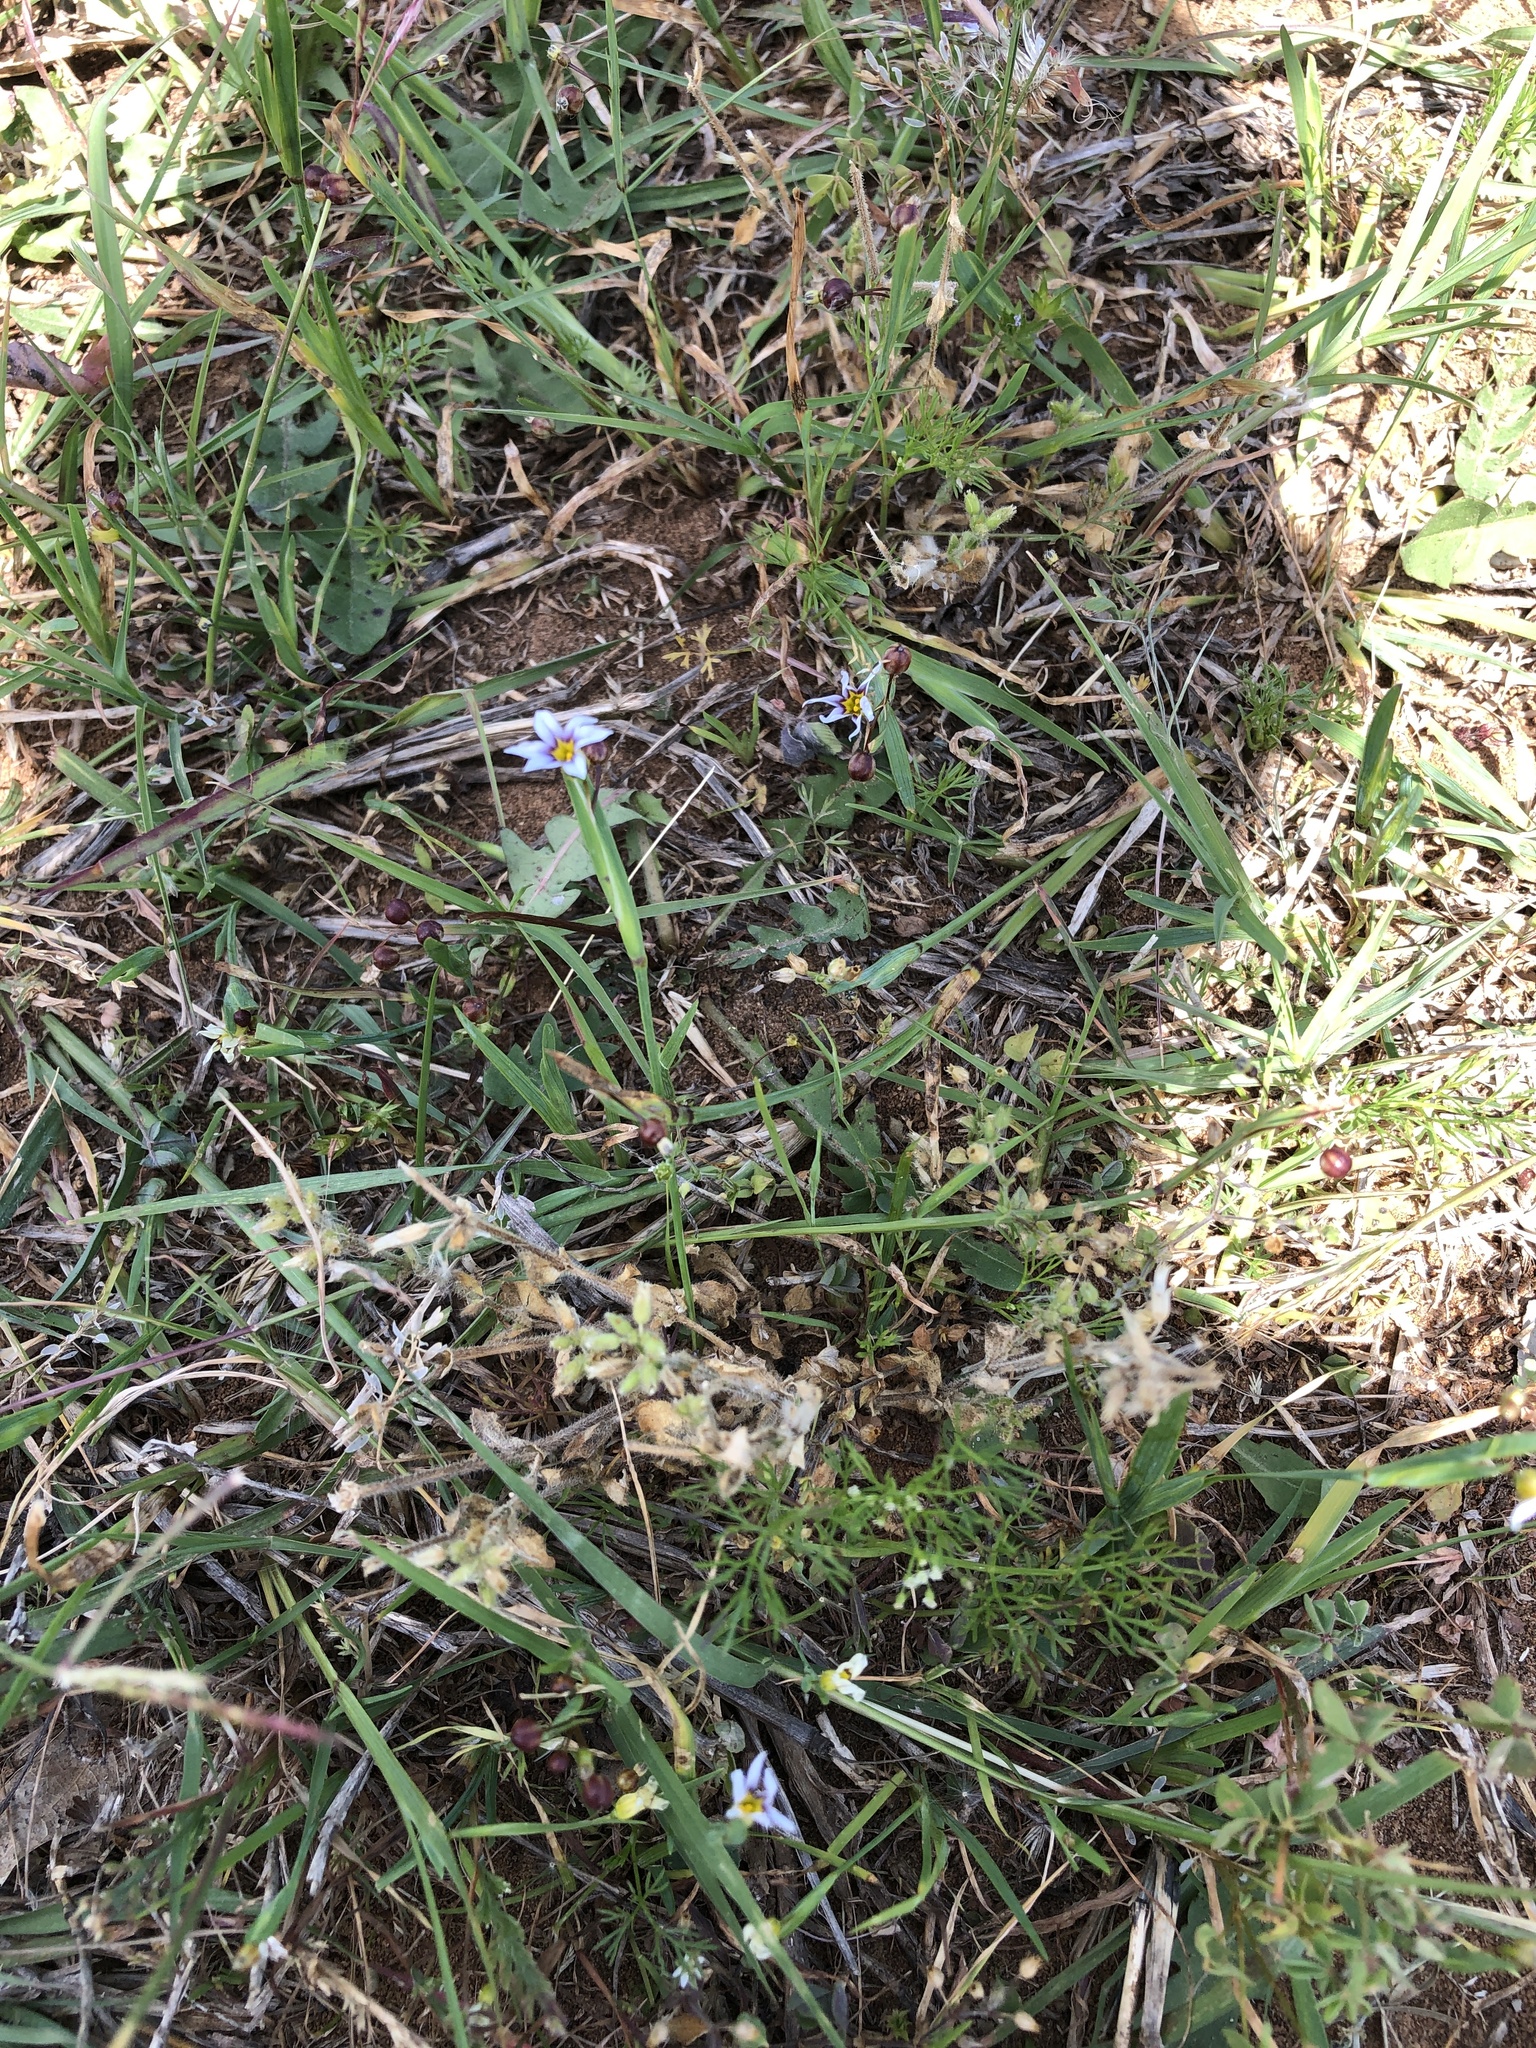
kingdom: Plantae
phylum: Tracheophyta
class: Liliopsida
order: Asparagales
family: Iridaceae
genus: Sisyrinchium
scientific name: Sisyrinchium micranthum
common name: Bermuda pigroot
